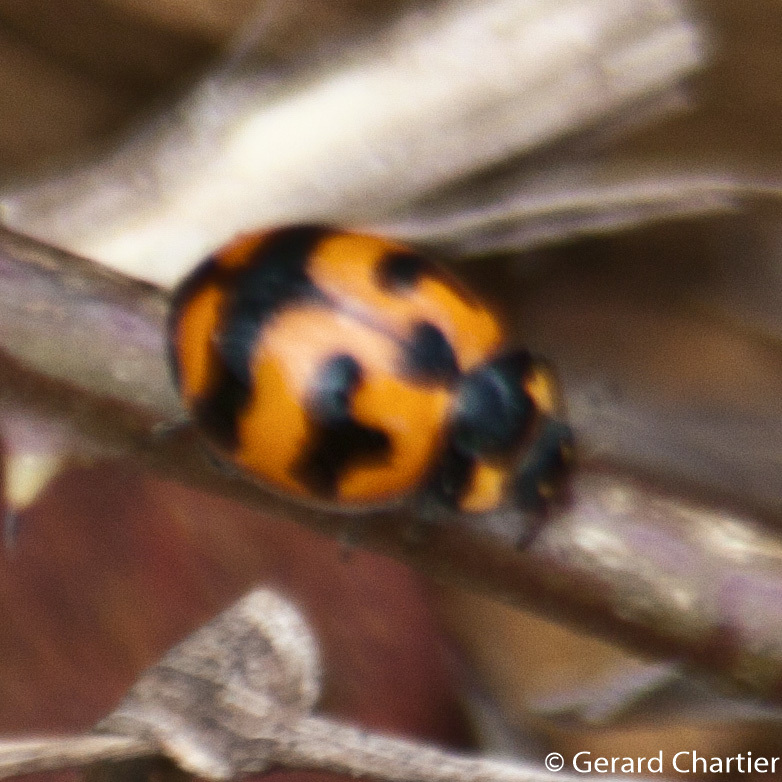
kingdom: Animalia
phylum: Arthropoda
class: Insecta
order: Coleoptera
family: Coccinellidae
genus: Coccinella
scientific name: Coccinella transversalis
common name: Transverse lady beetle
